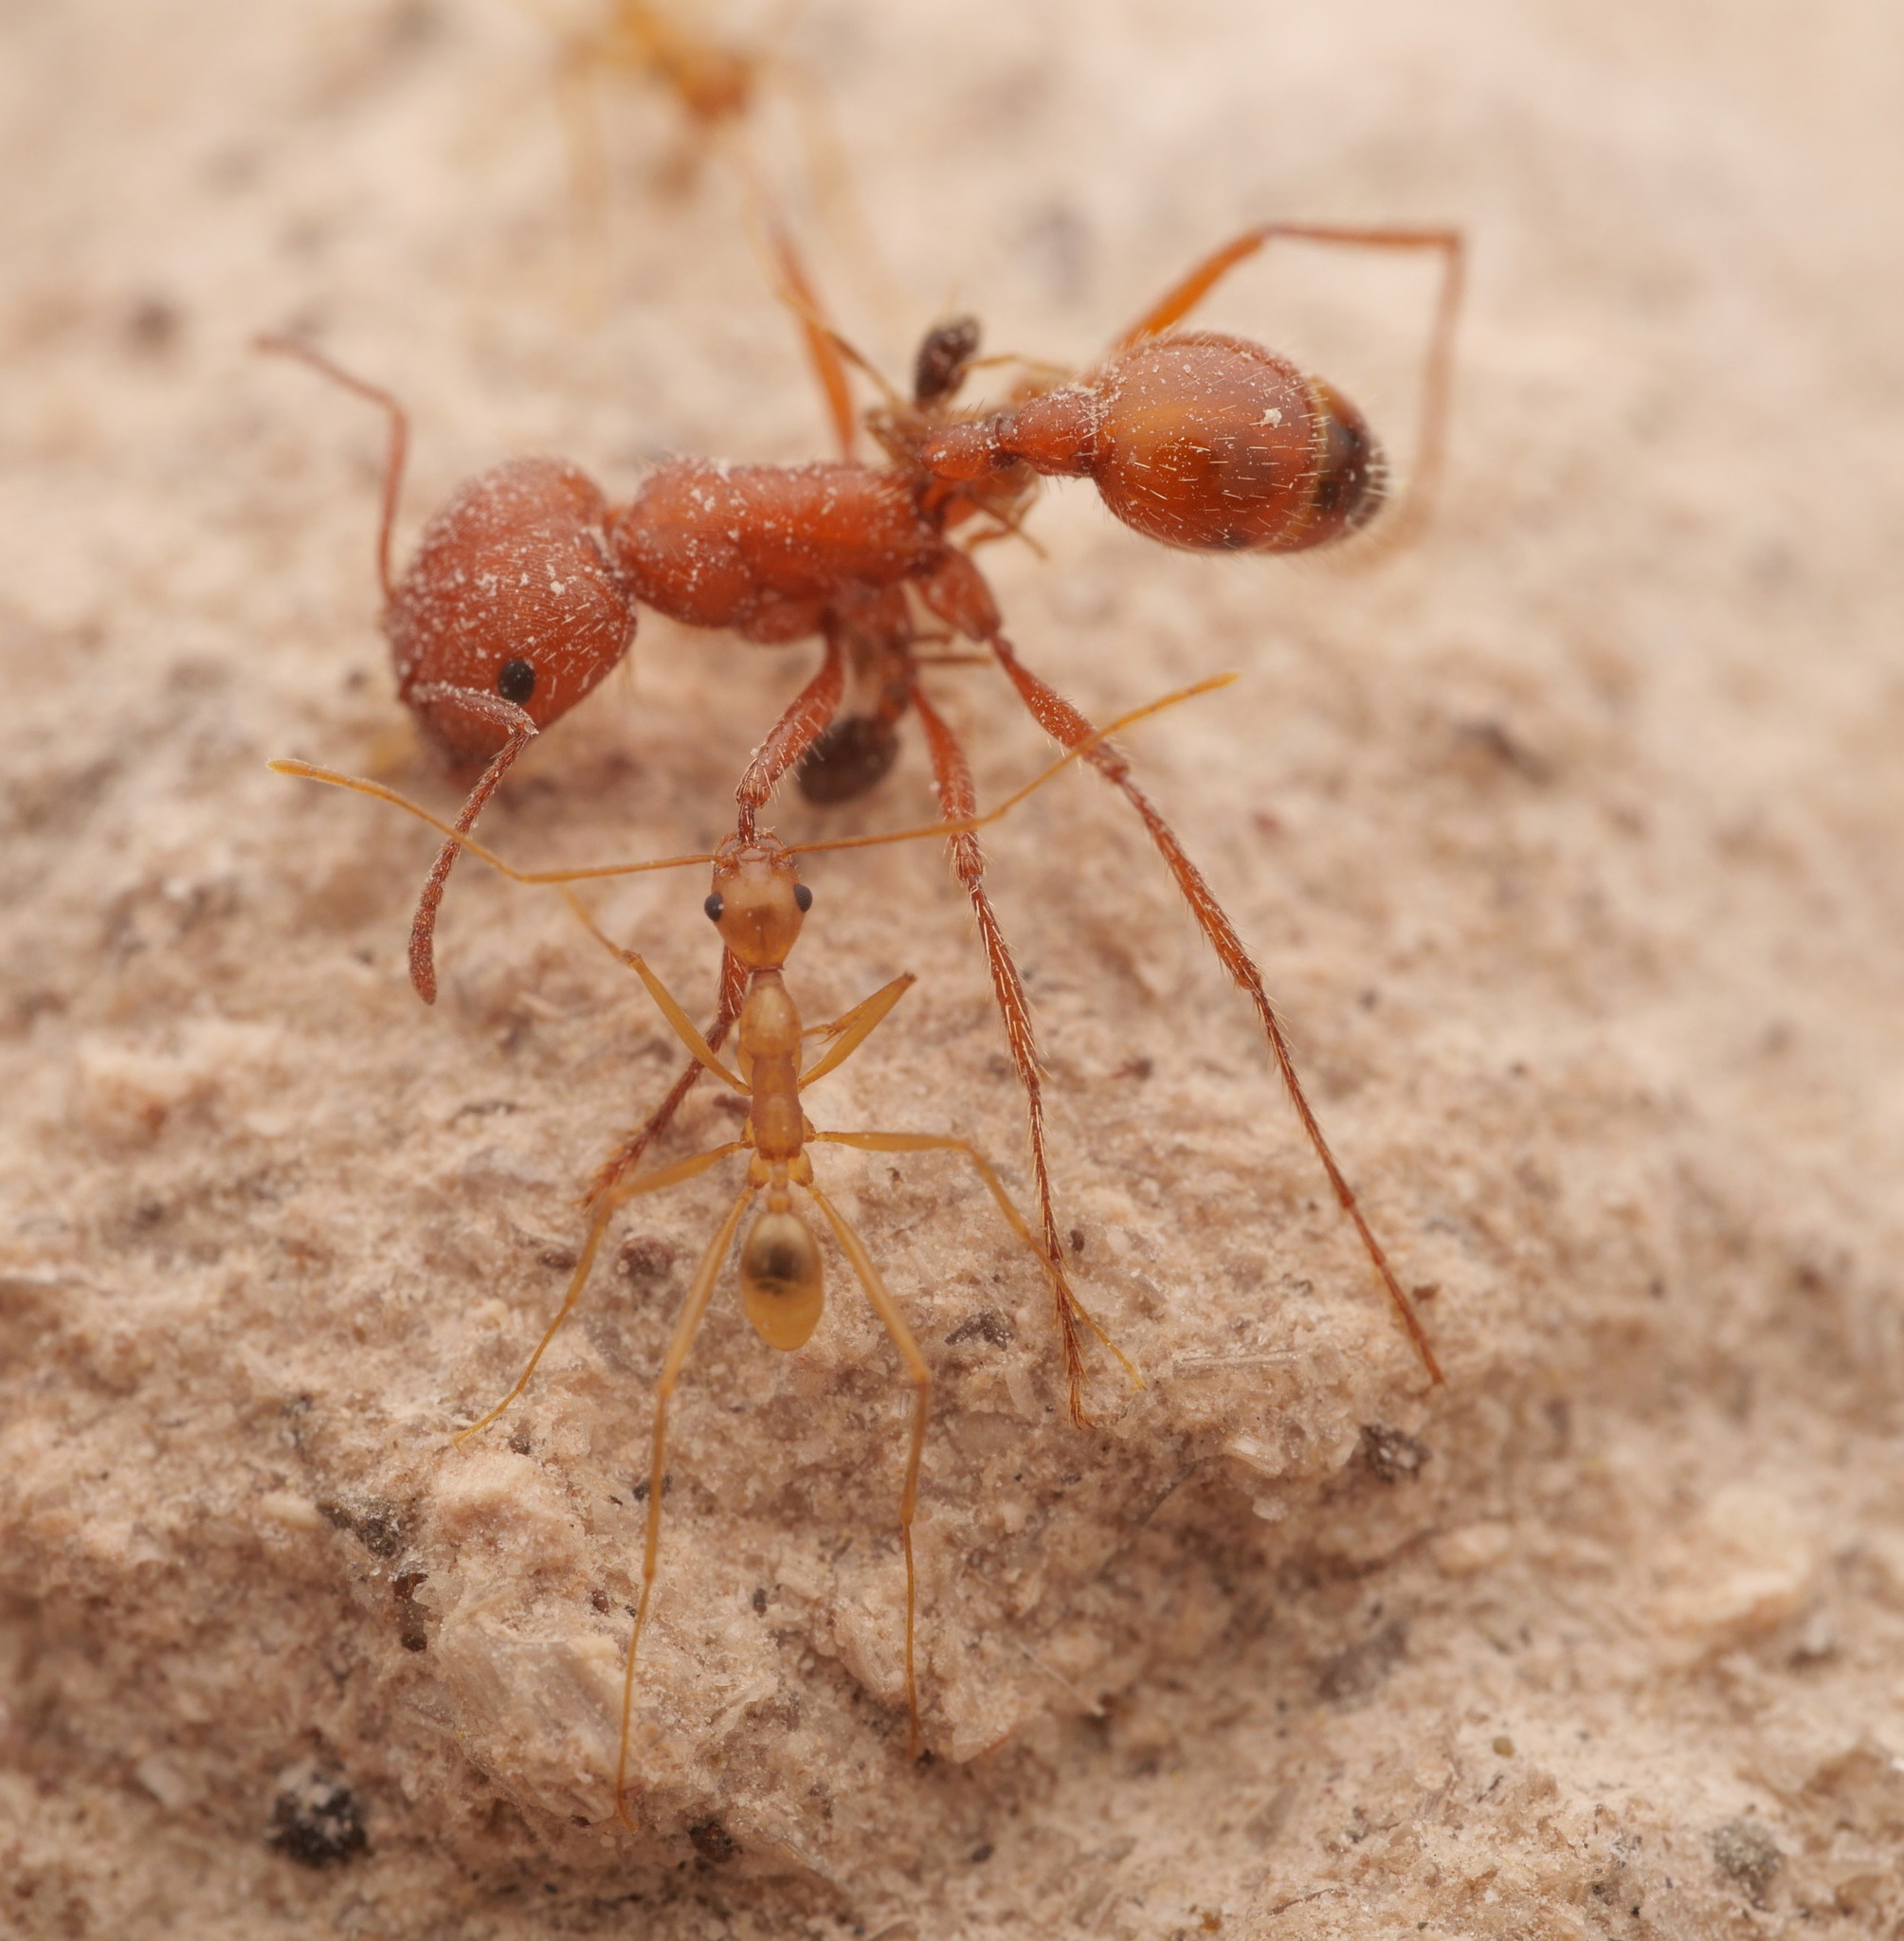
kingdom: Animalia
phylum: Arthropoda
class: Insecta
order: Hymenoptera
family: Formicidae
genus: Pogonomyrmex
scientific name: Pogonomyrmex californicus
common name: California harvester ant
